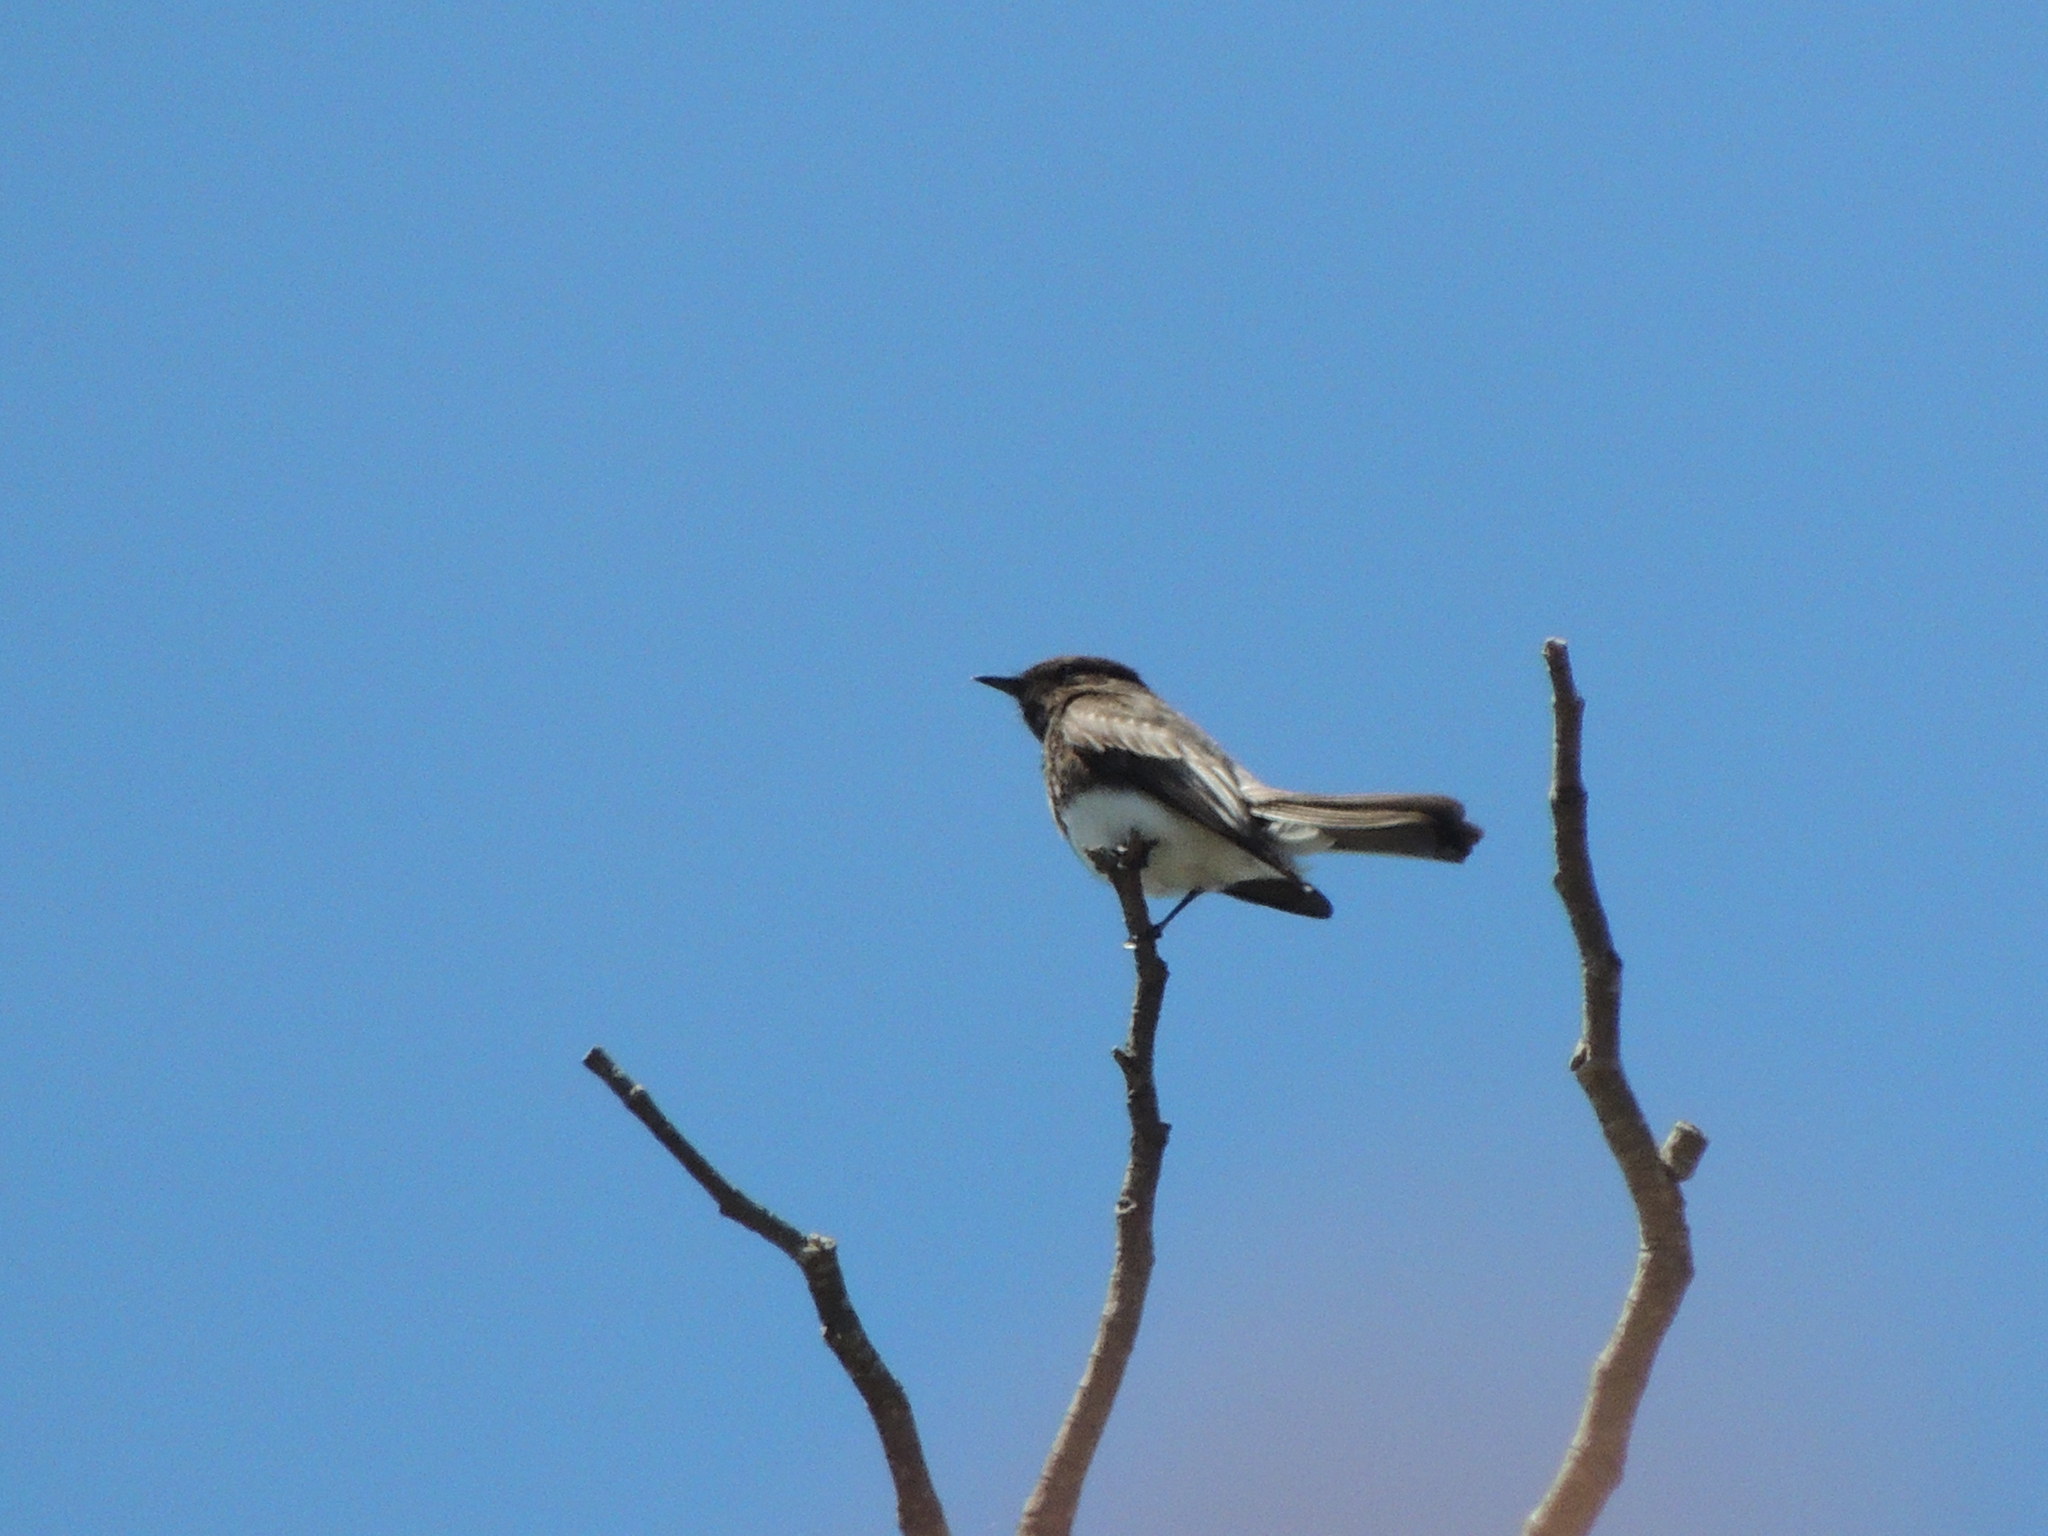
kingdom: Animalia
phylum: Chordata
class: Aves
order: Passeriformes
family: Tyrannidae
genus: Sayornis
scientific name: Sayornis nigricans
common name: Black phoebe
